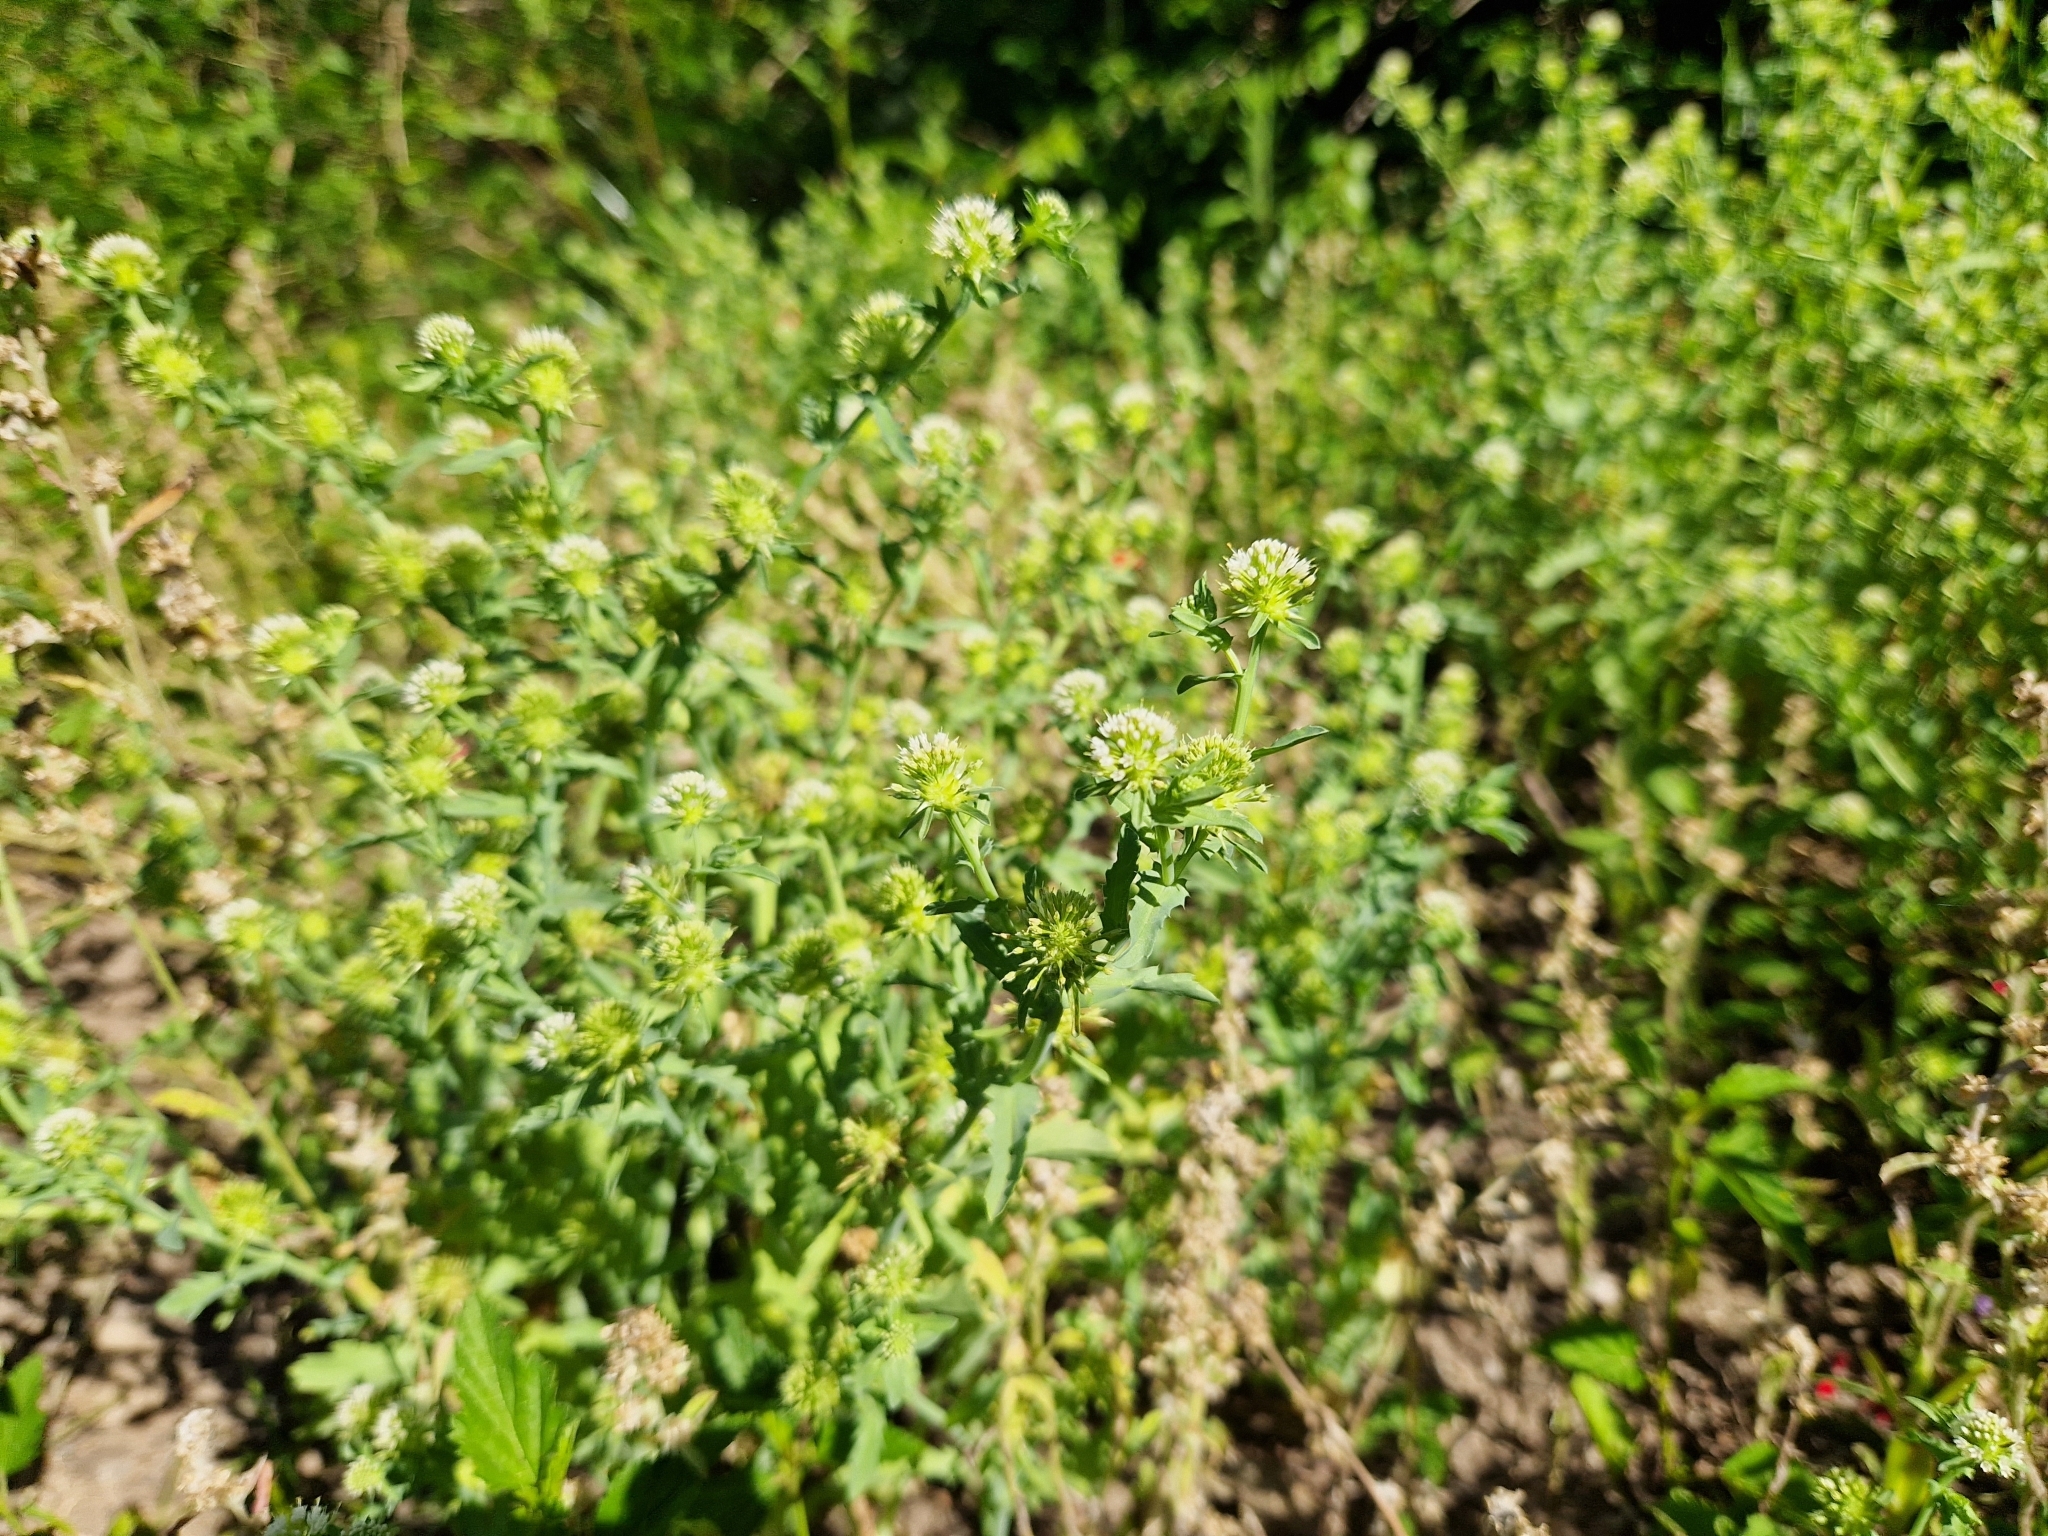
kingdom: Plantae
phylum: Tracheophyta
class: Magnoliopsida
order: Asterales
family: Calyceraceae
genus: Acicarpha
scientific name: Acicarpha tribuloides
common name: Madam gorgon
